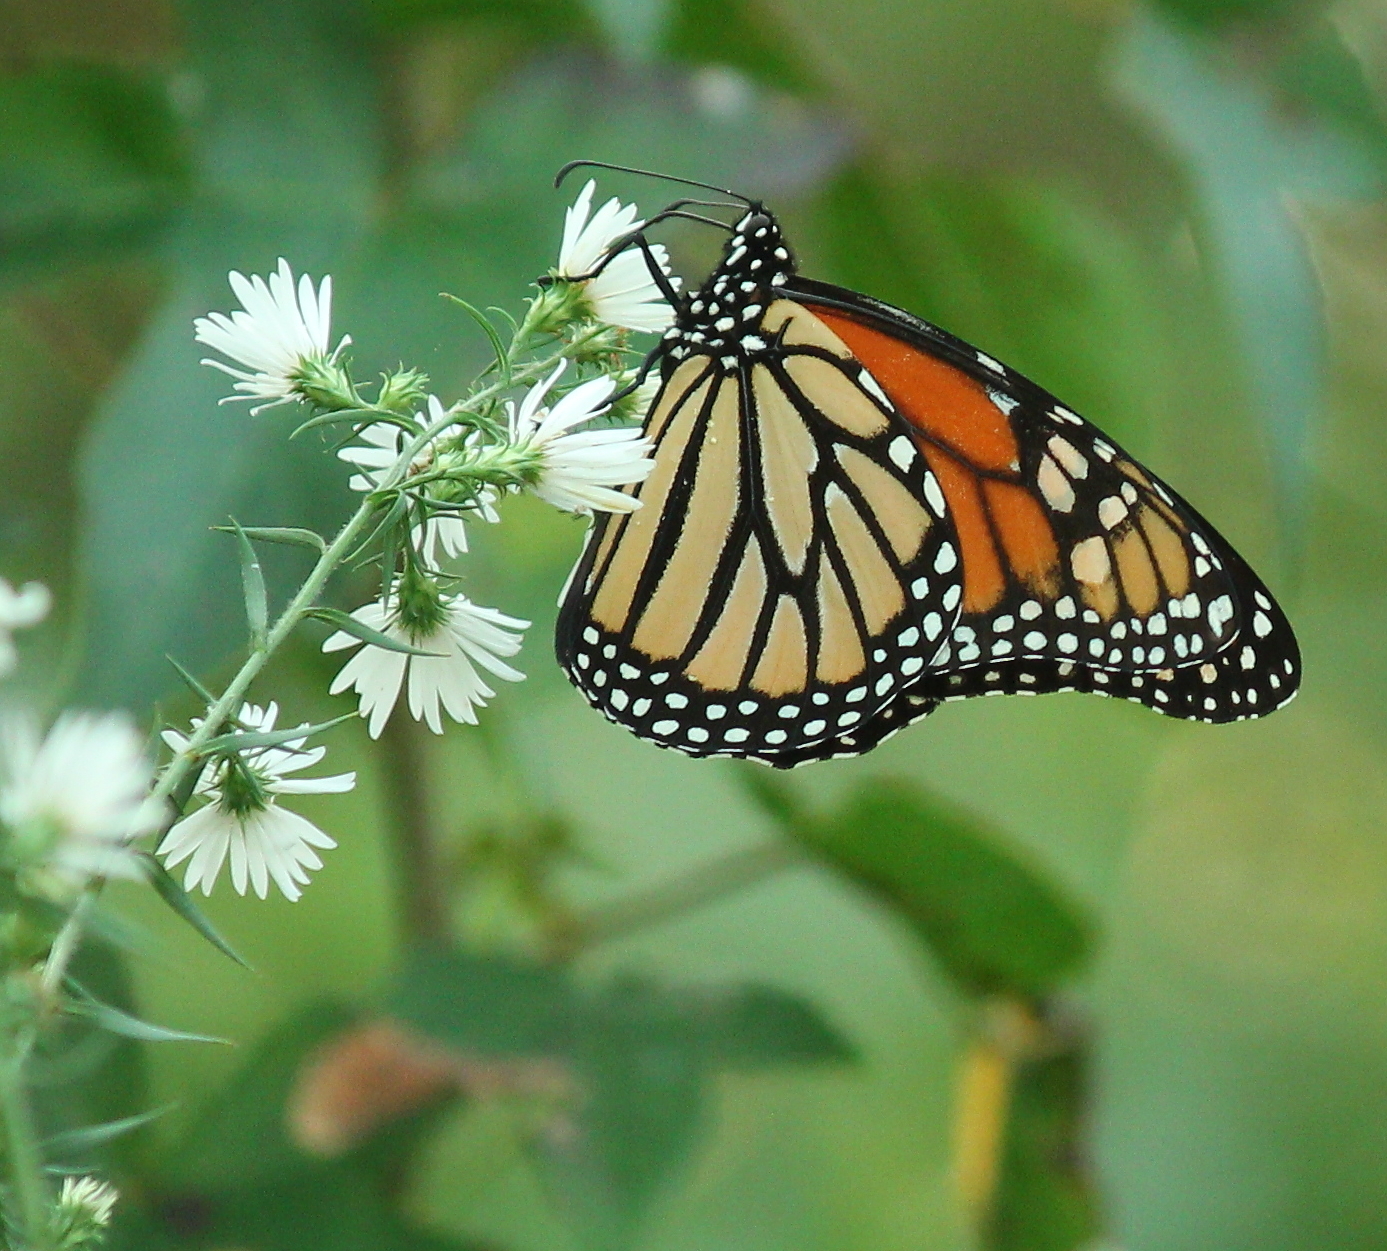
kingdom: Animalia
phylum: Arthropoda
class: Insecta
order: Lepidoptera
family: Nymphalidae
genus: Danaus
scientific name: Danaus plexippus
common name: Monarch
